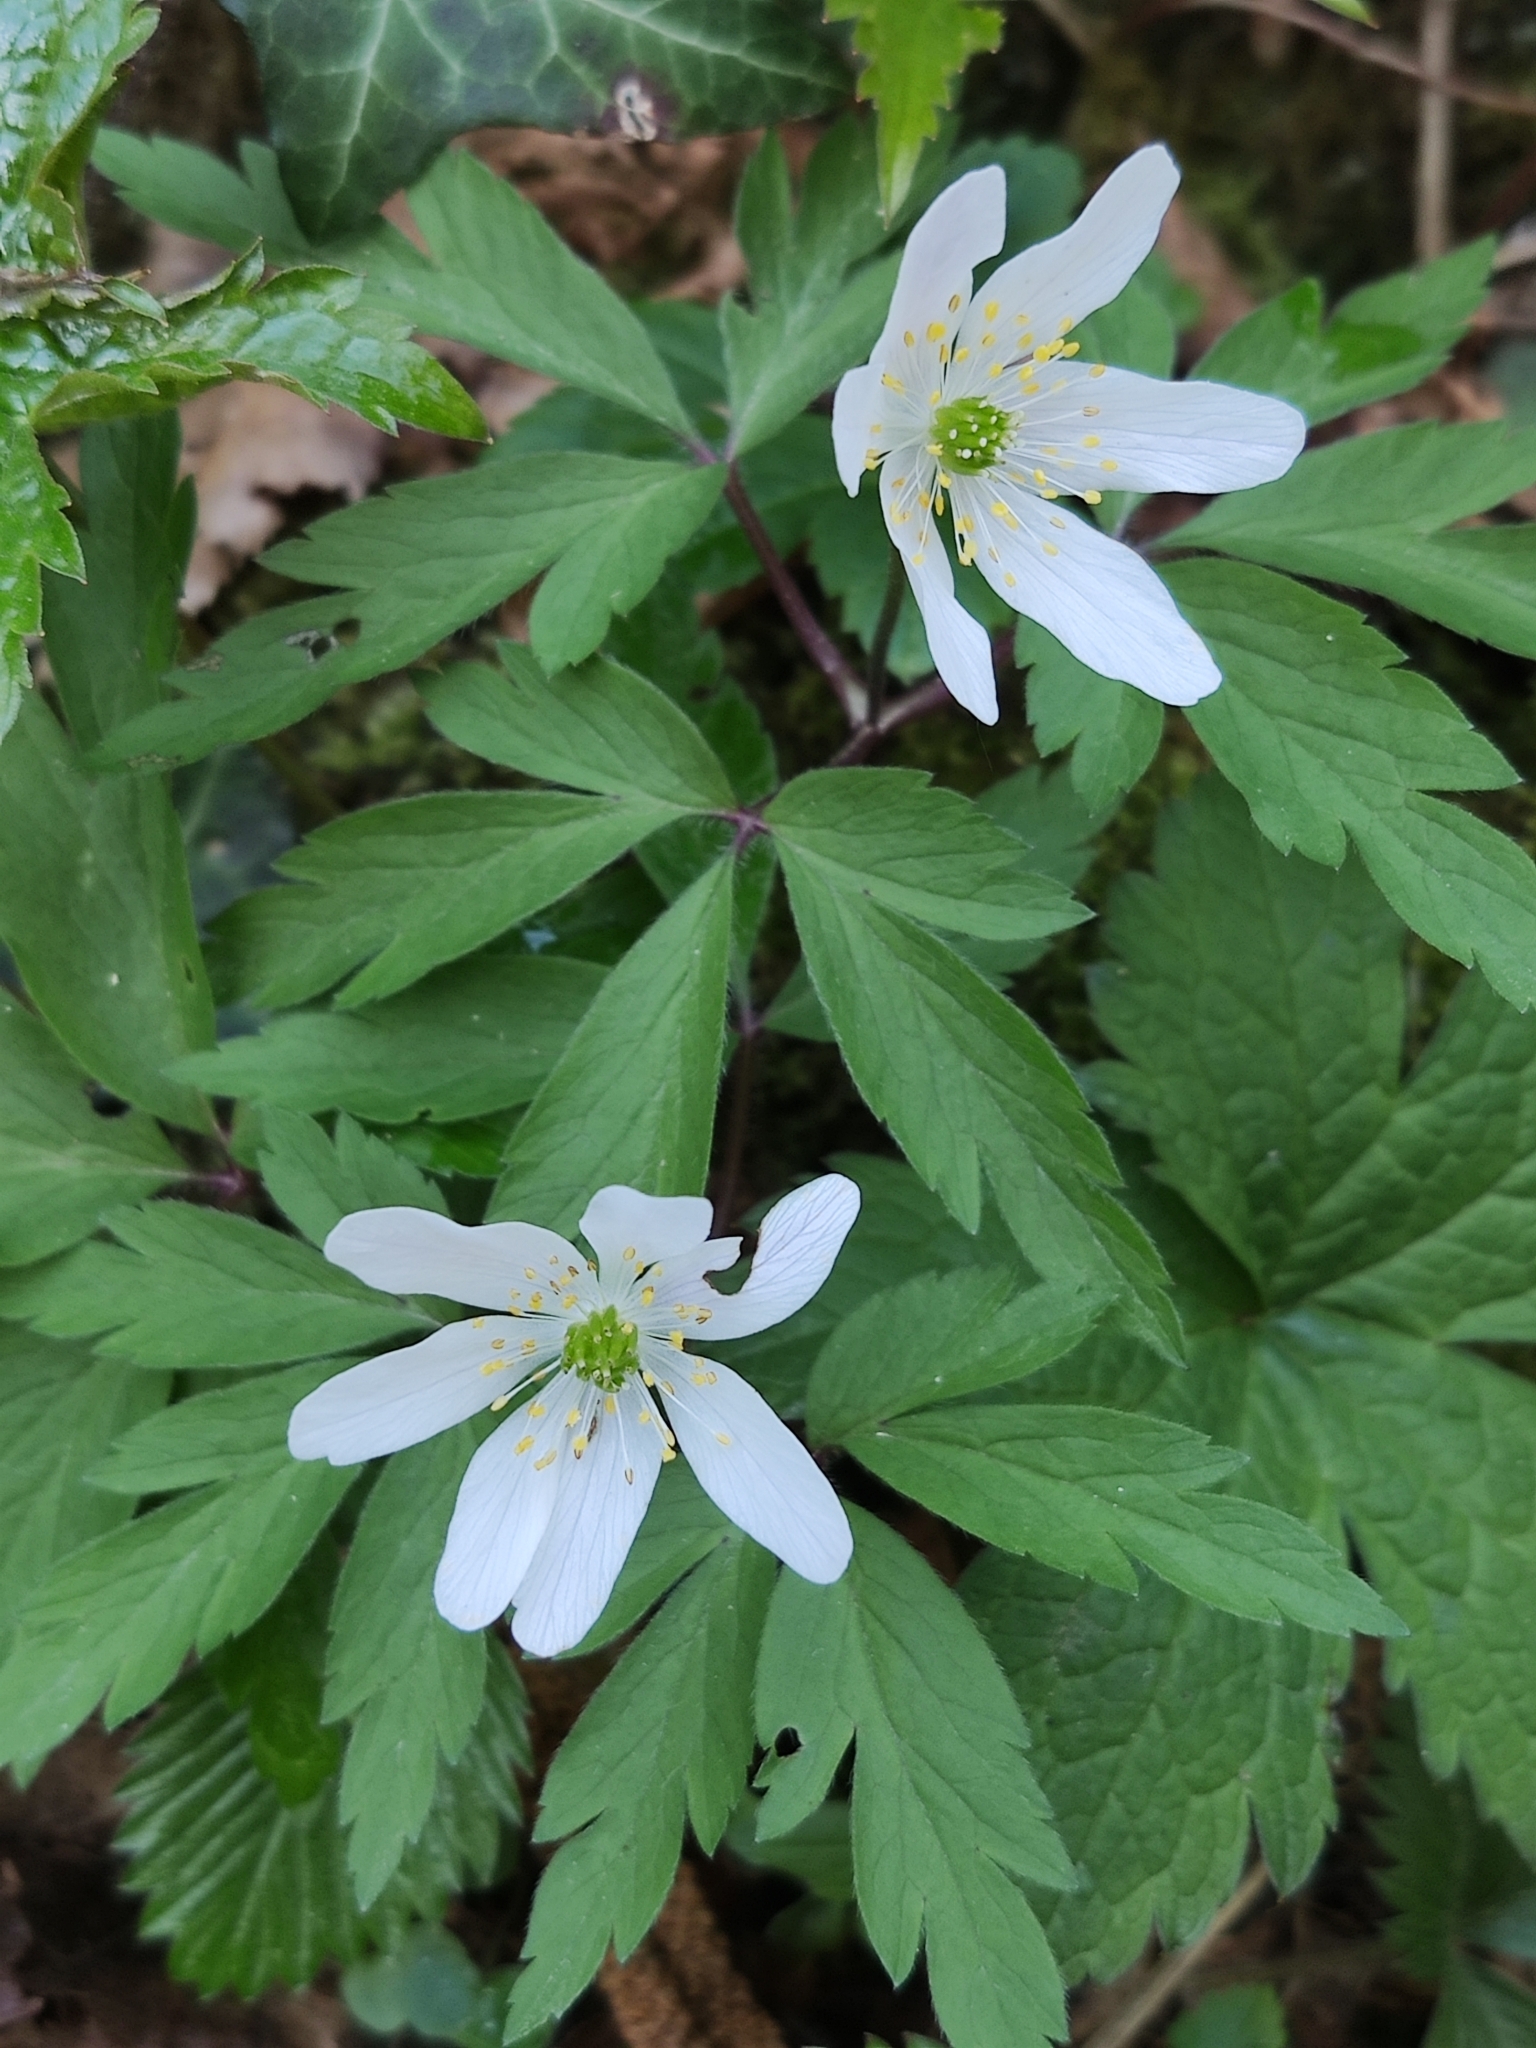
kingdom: Plantae
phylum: Tracheophyta
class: Magnoliopsida
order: Ranunculales
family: Ranunculaceae
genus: Anemone
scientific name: Anemone nemorosa
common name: Wood anemone
